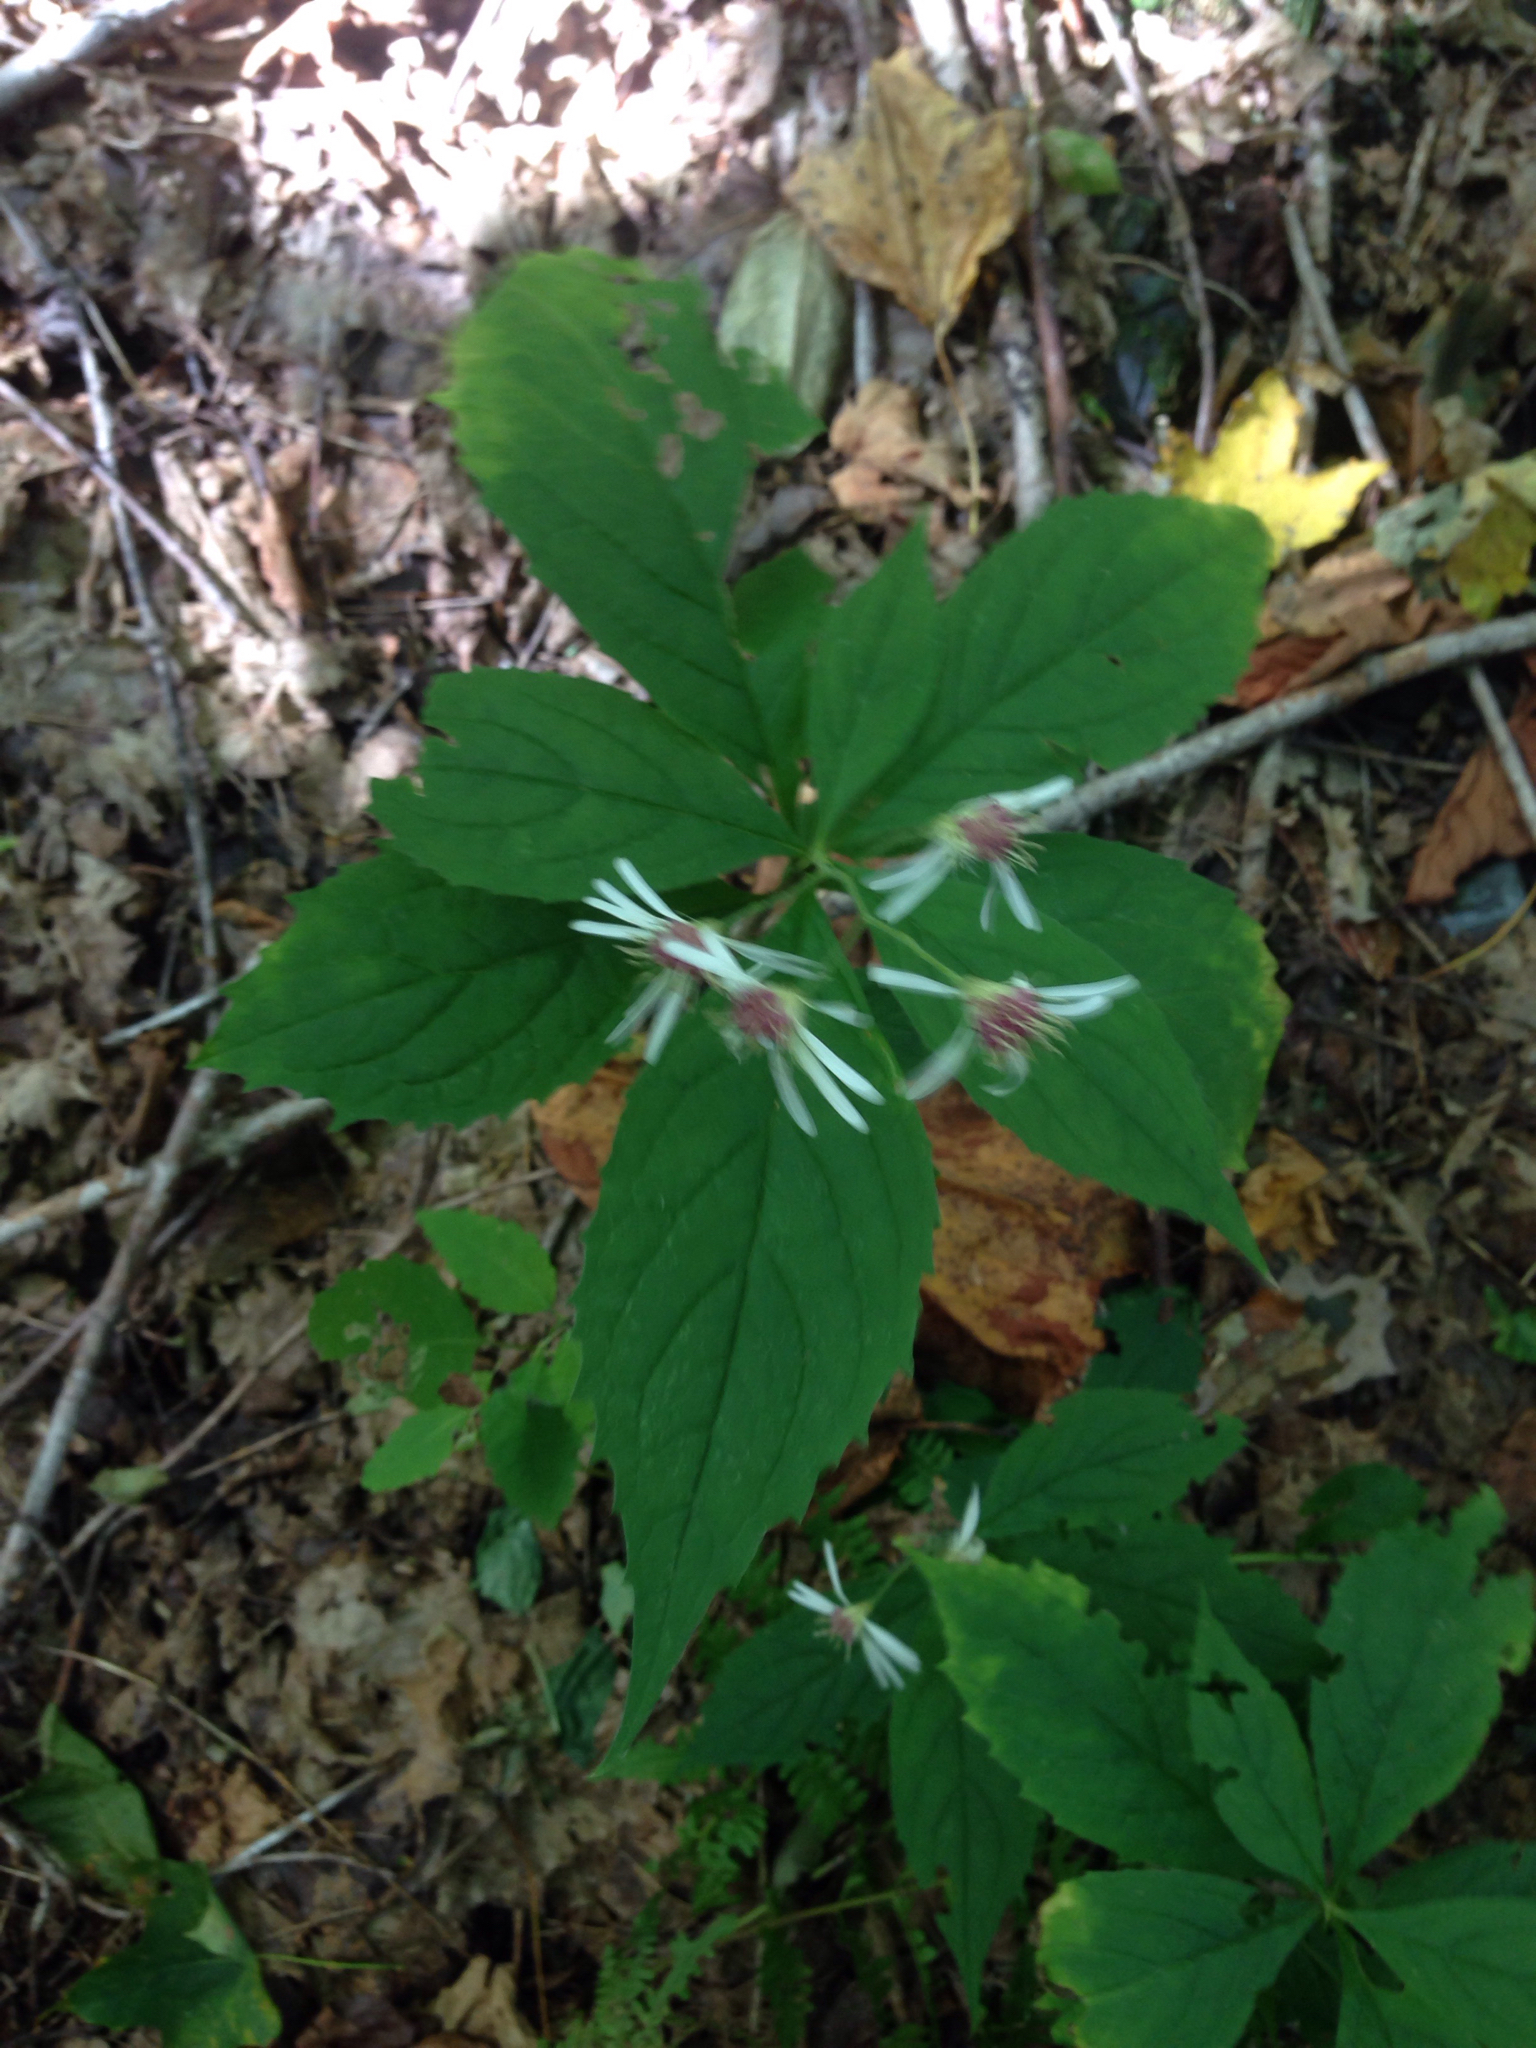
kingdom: Plantae
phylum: Tracheophyta
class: Magnoliopsida
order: Asterales
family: Asteraceae
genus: Oclemena
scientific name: Oclemena acuminata
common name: Mountain aster
